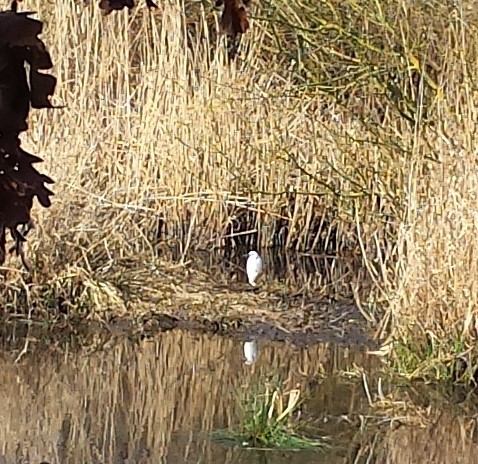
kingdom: Animalia
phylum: Chordata
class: Aves
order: Pelecaniformes
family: Ardeidae
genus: Egretta
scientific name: Egretta garzetta
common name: Little egret
